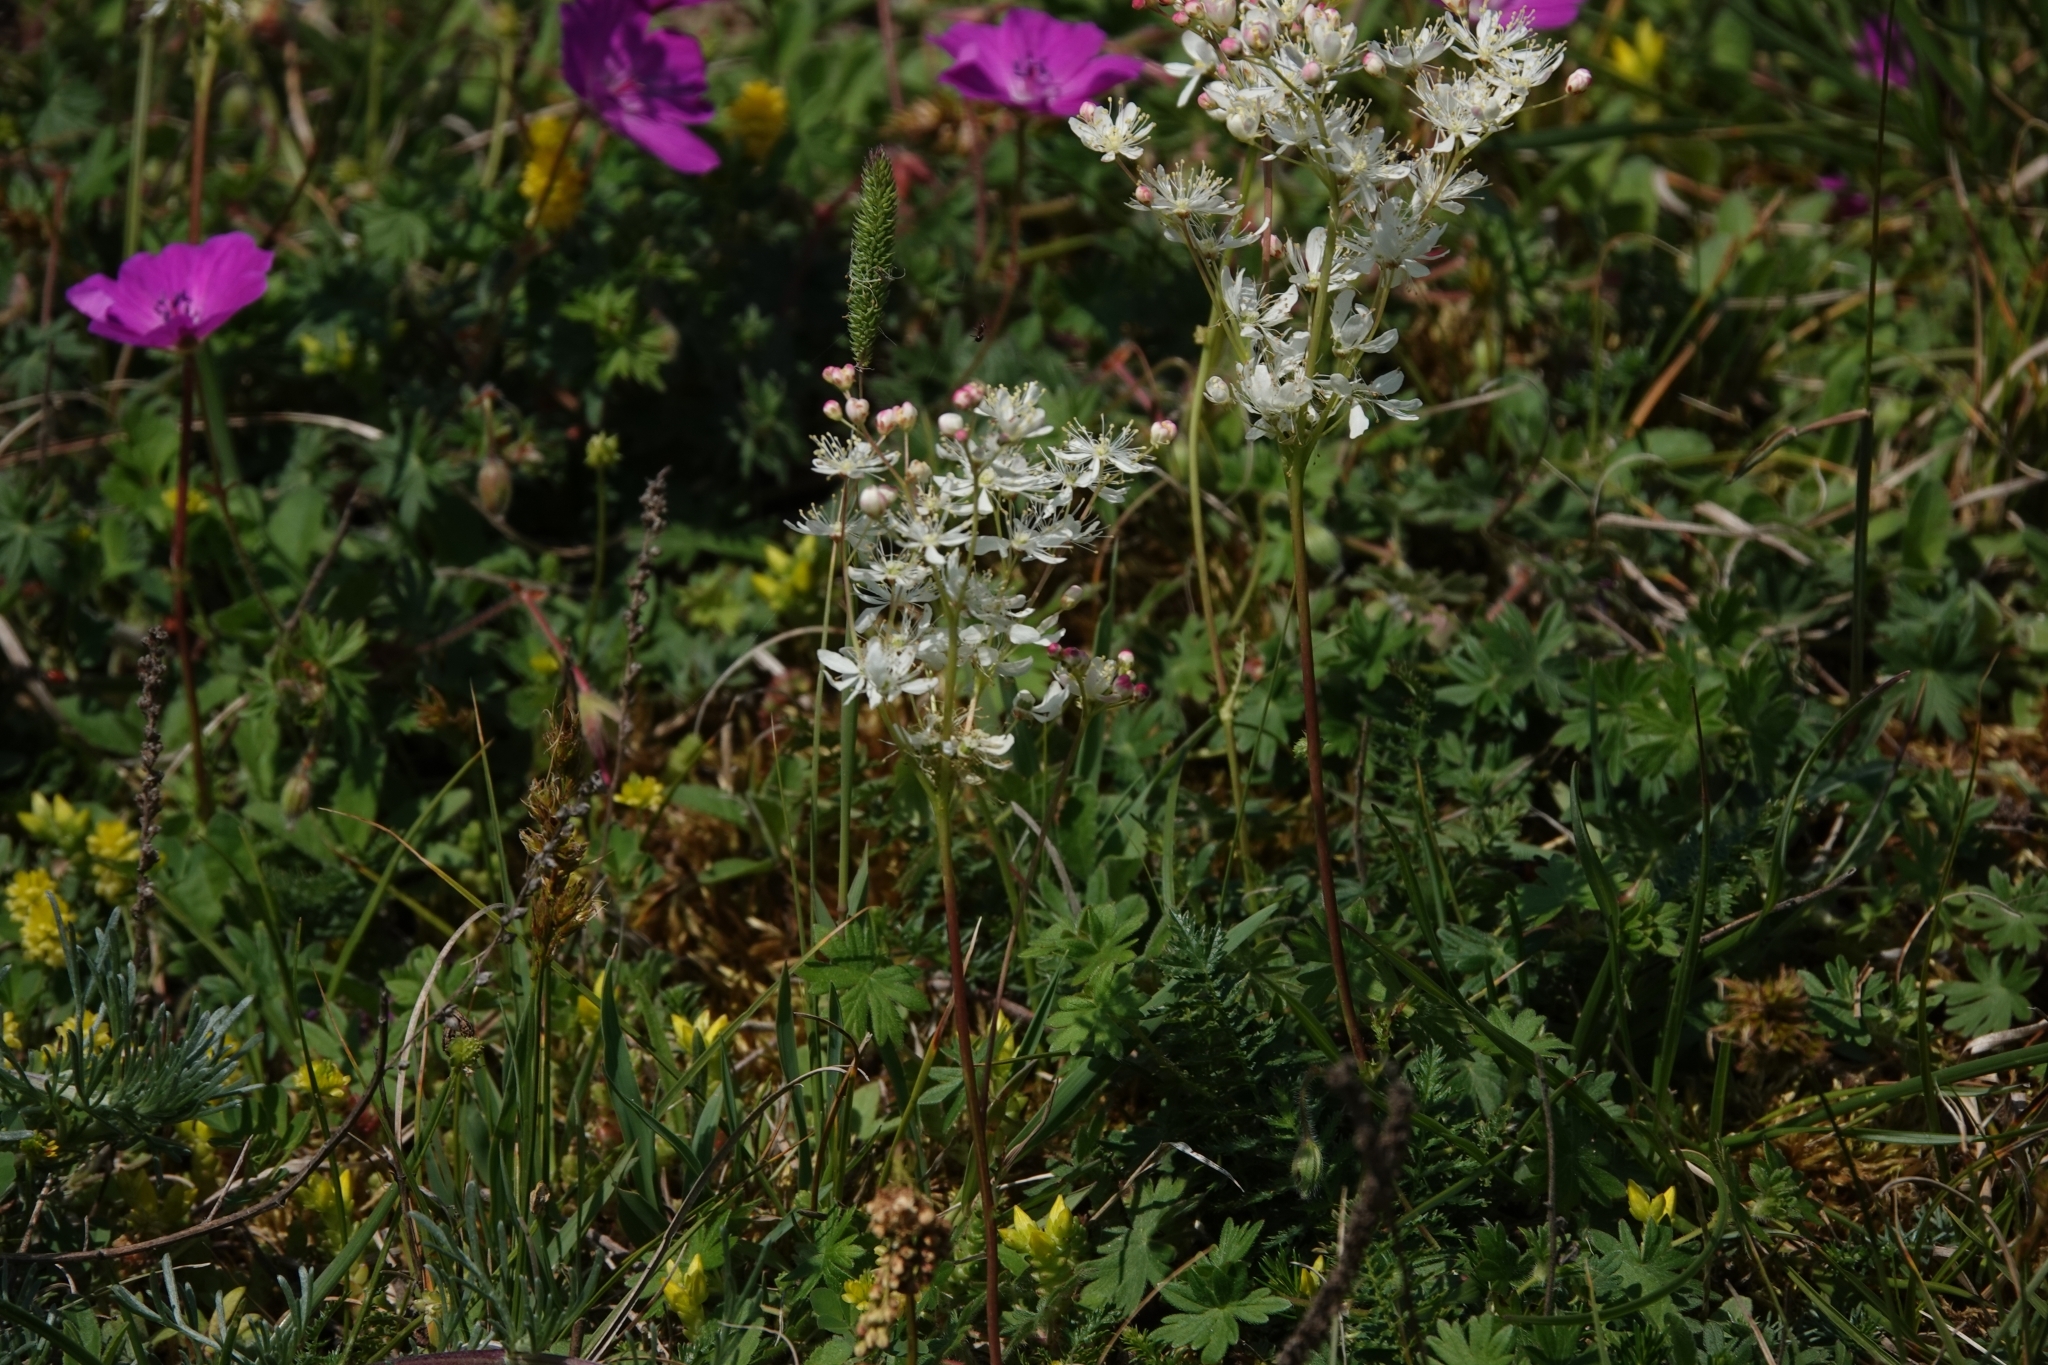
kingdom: Plantae
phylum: Tracheophyta
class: Magnoliopsida
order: Rosales
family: Rosaceae
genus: Filipendula
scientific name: Filipendula vulgaris
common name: Dropwort
